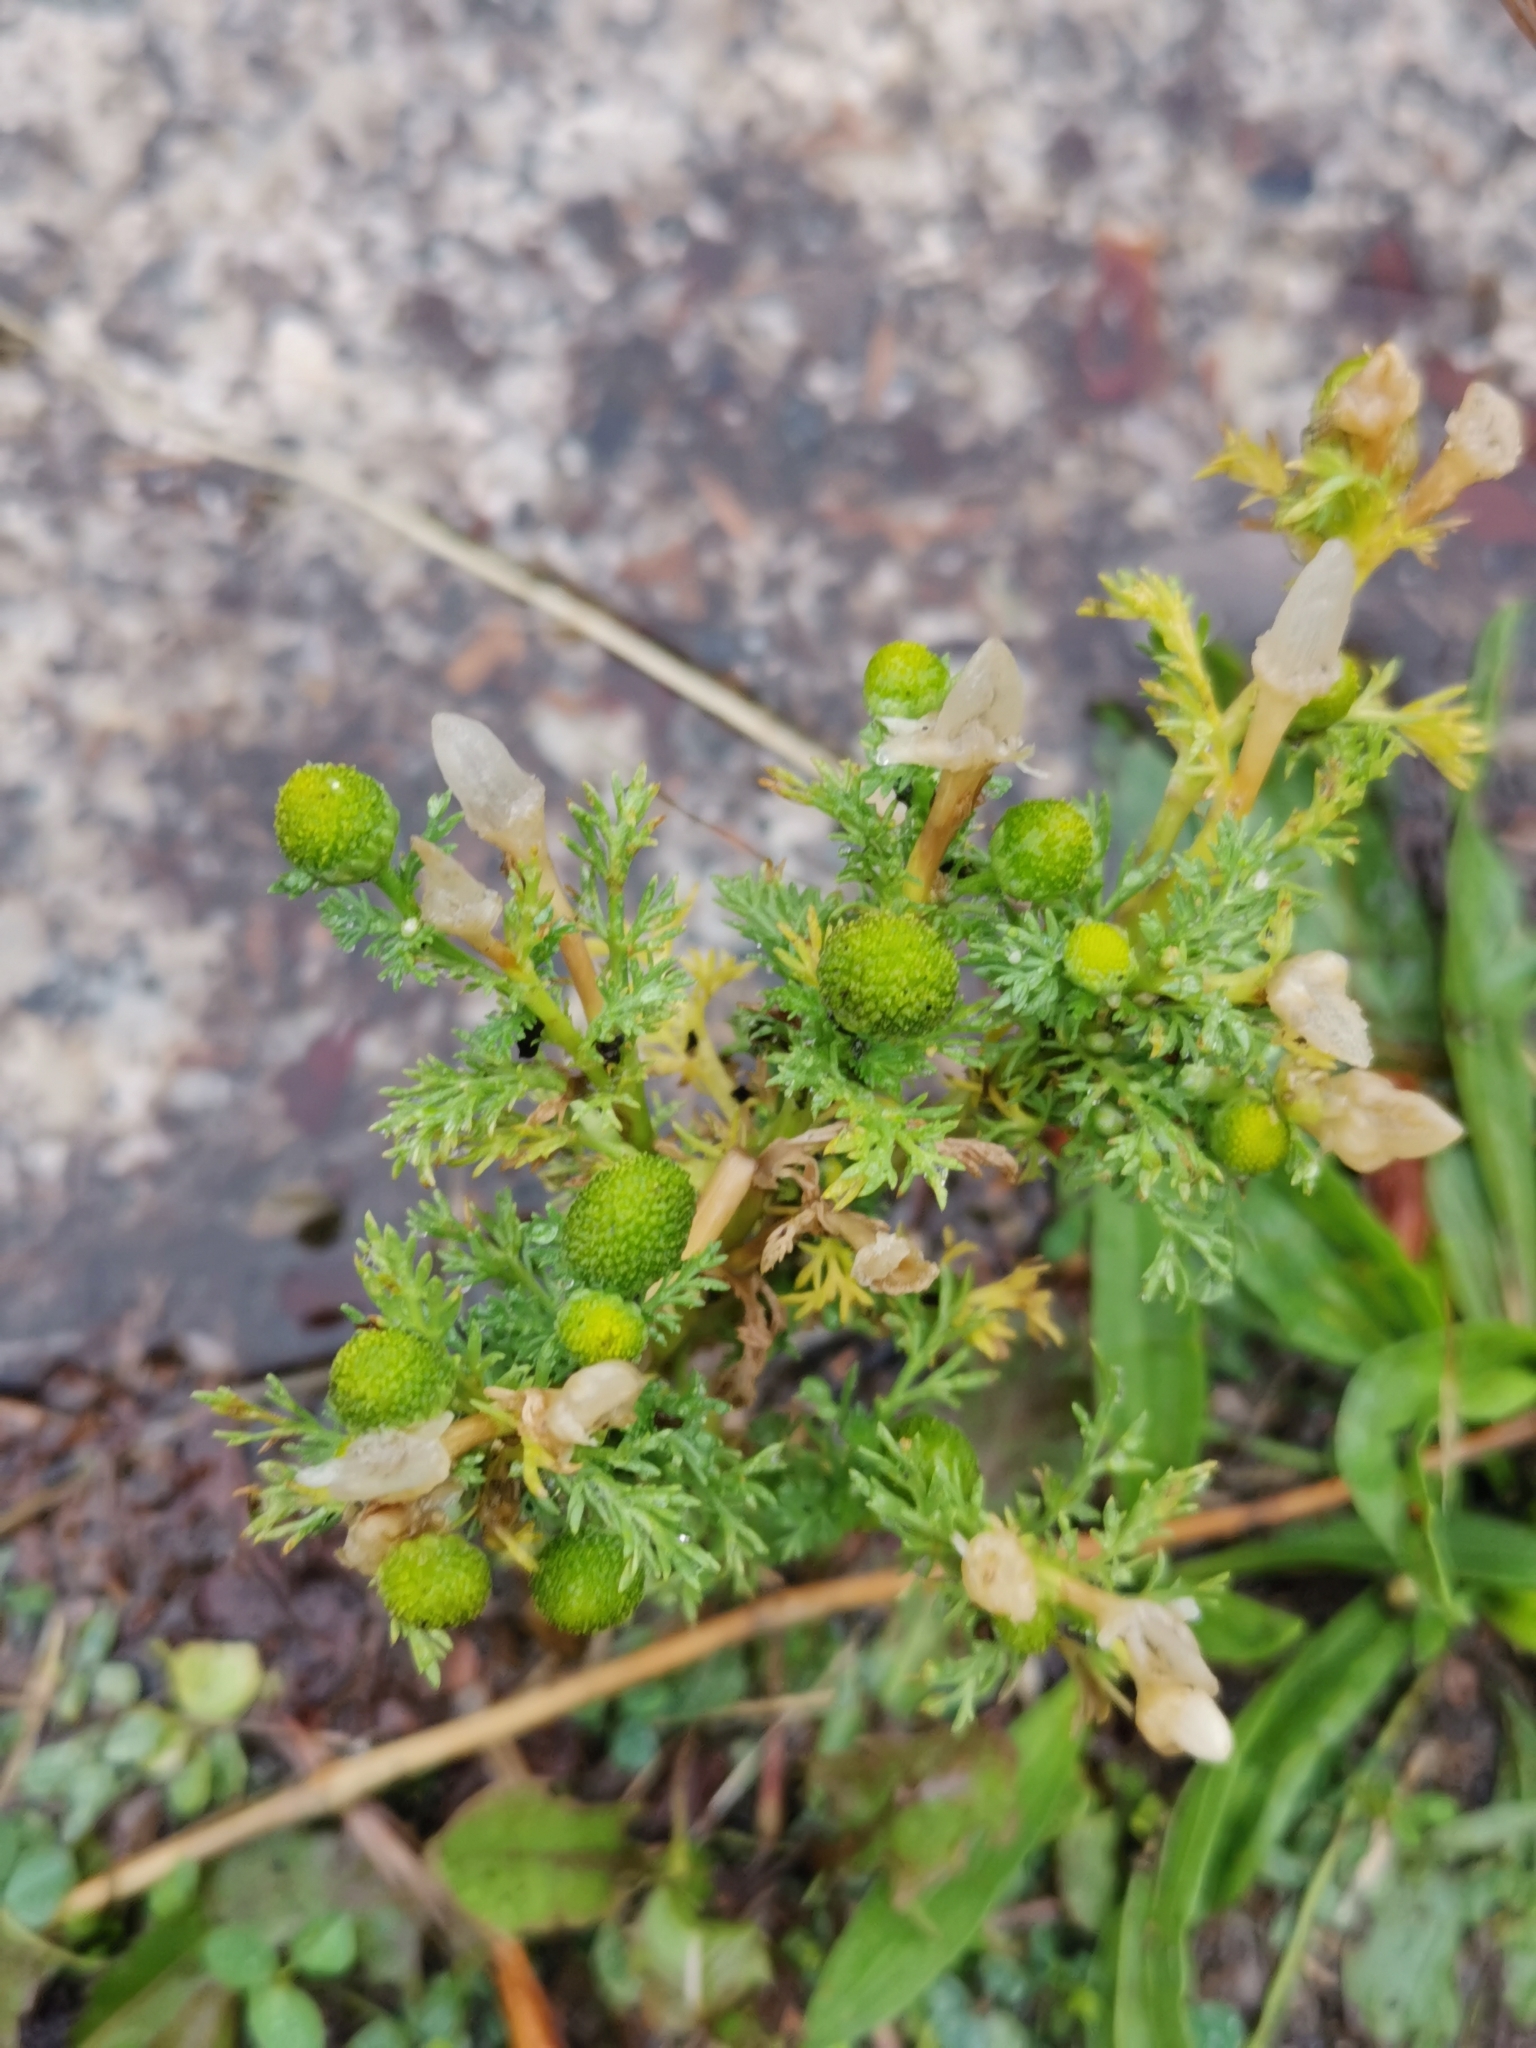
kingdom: Plantae
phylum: Tracheophyta
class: Magnoliopsida
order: Asterales
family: Asteraceae
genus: Matricaria
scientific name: Matricaria discoidea
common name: Disc mayweed
